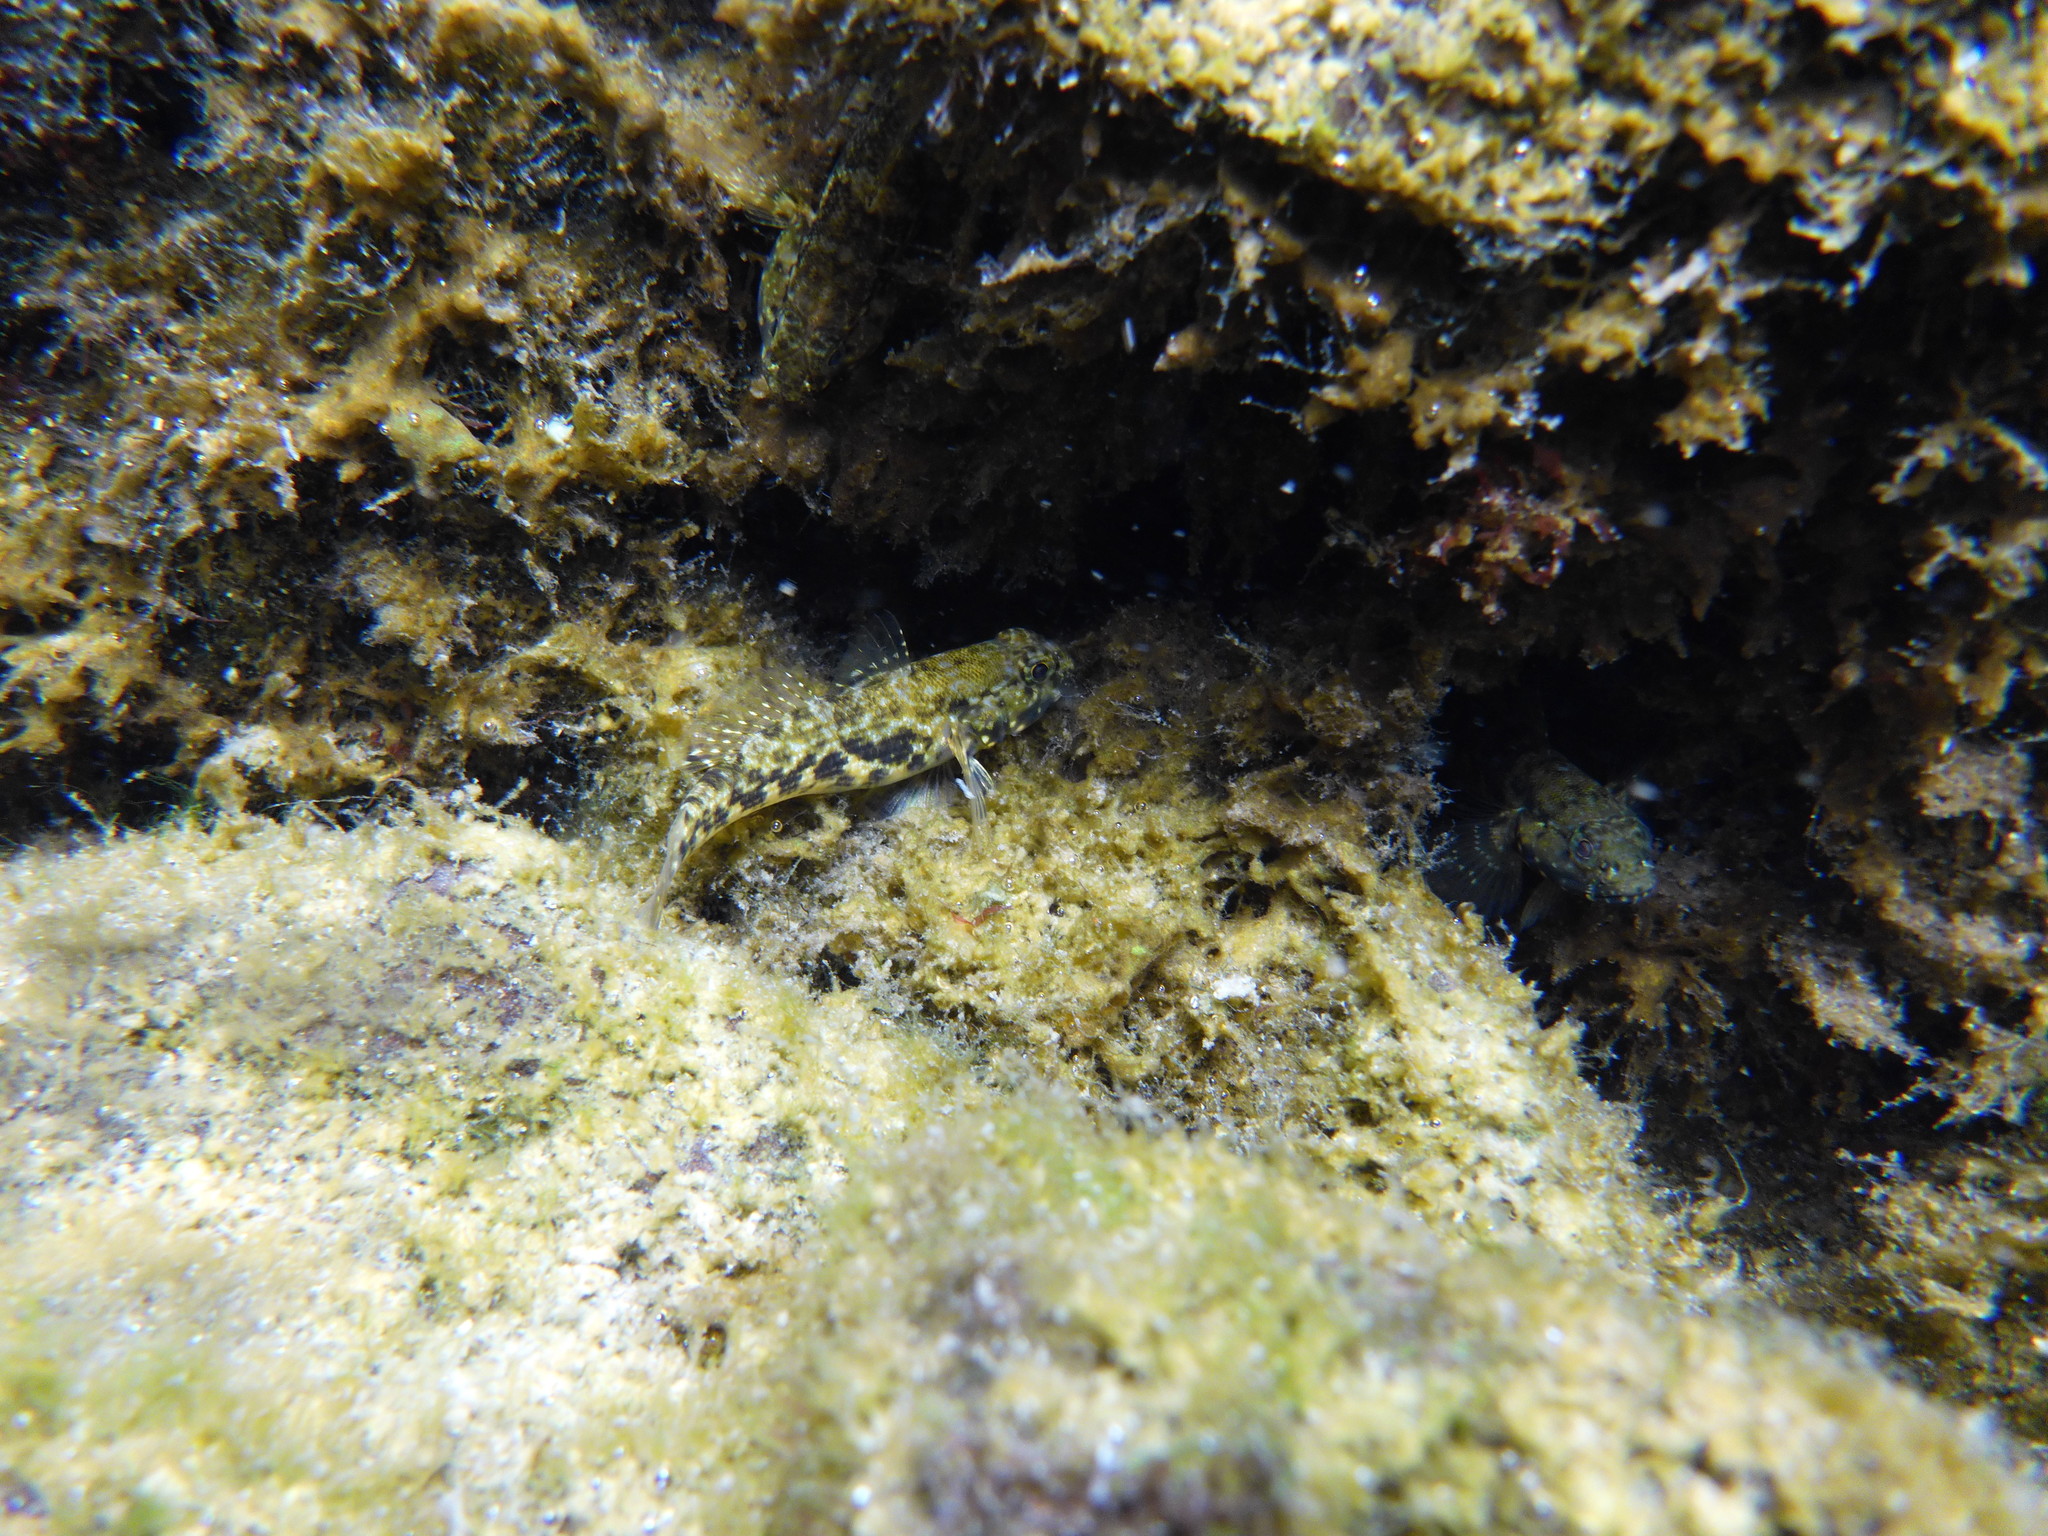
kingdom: Animalia
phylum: Chordata
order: Perciformes
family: Gobiidae
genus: Bathygobius
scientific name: Bathygobius lineatus
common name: Southern frillfin
